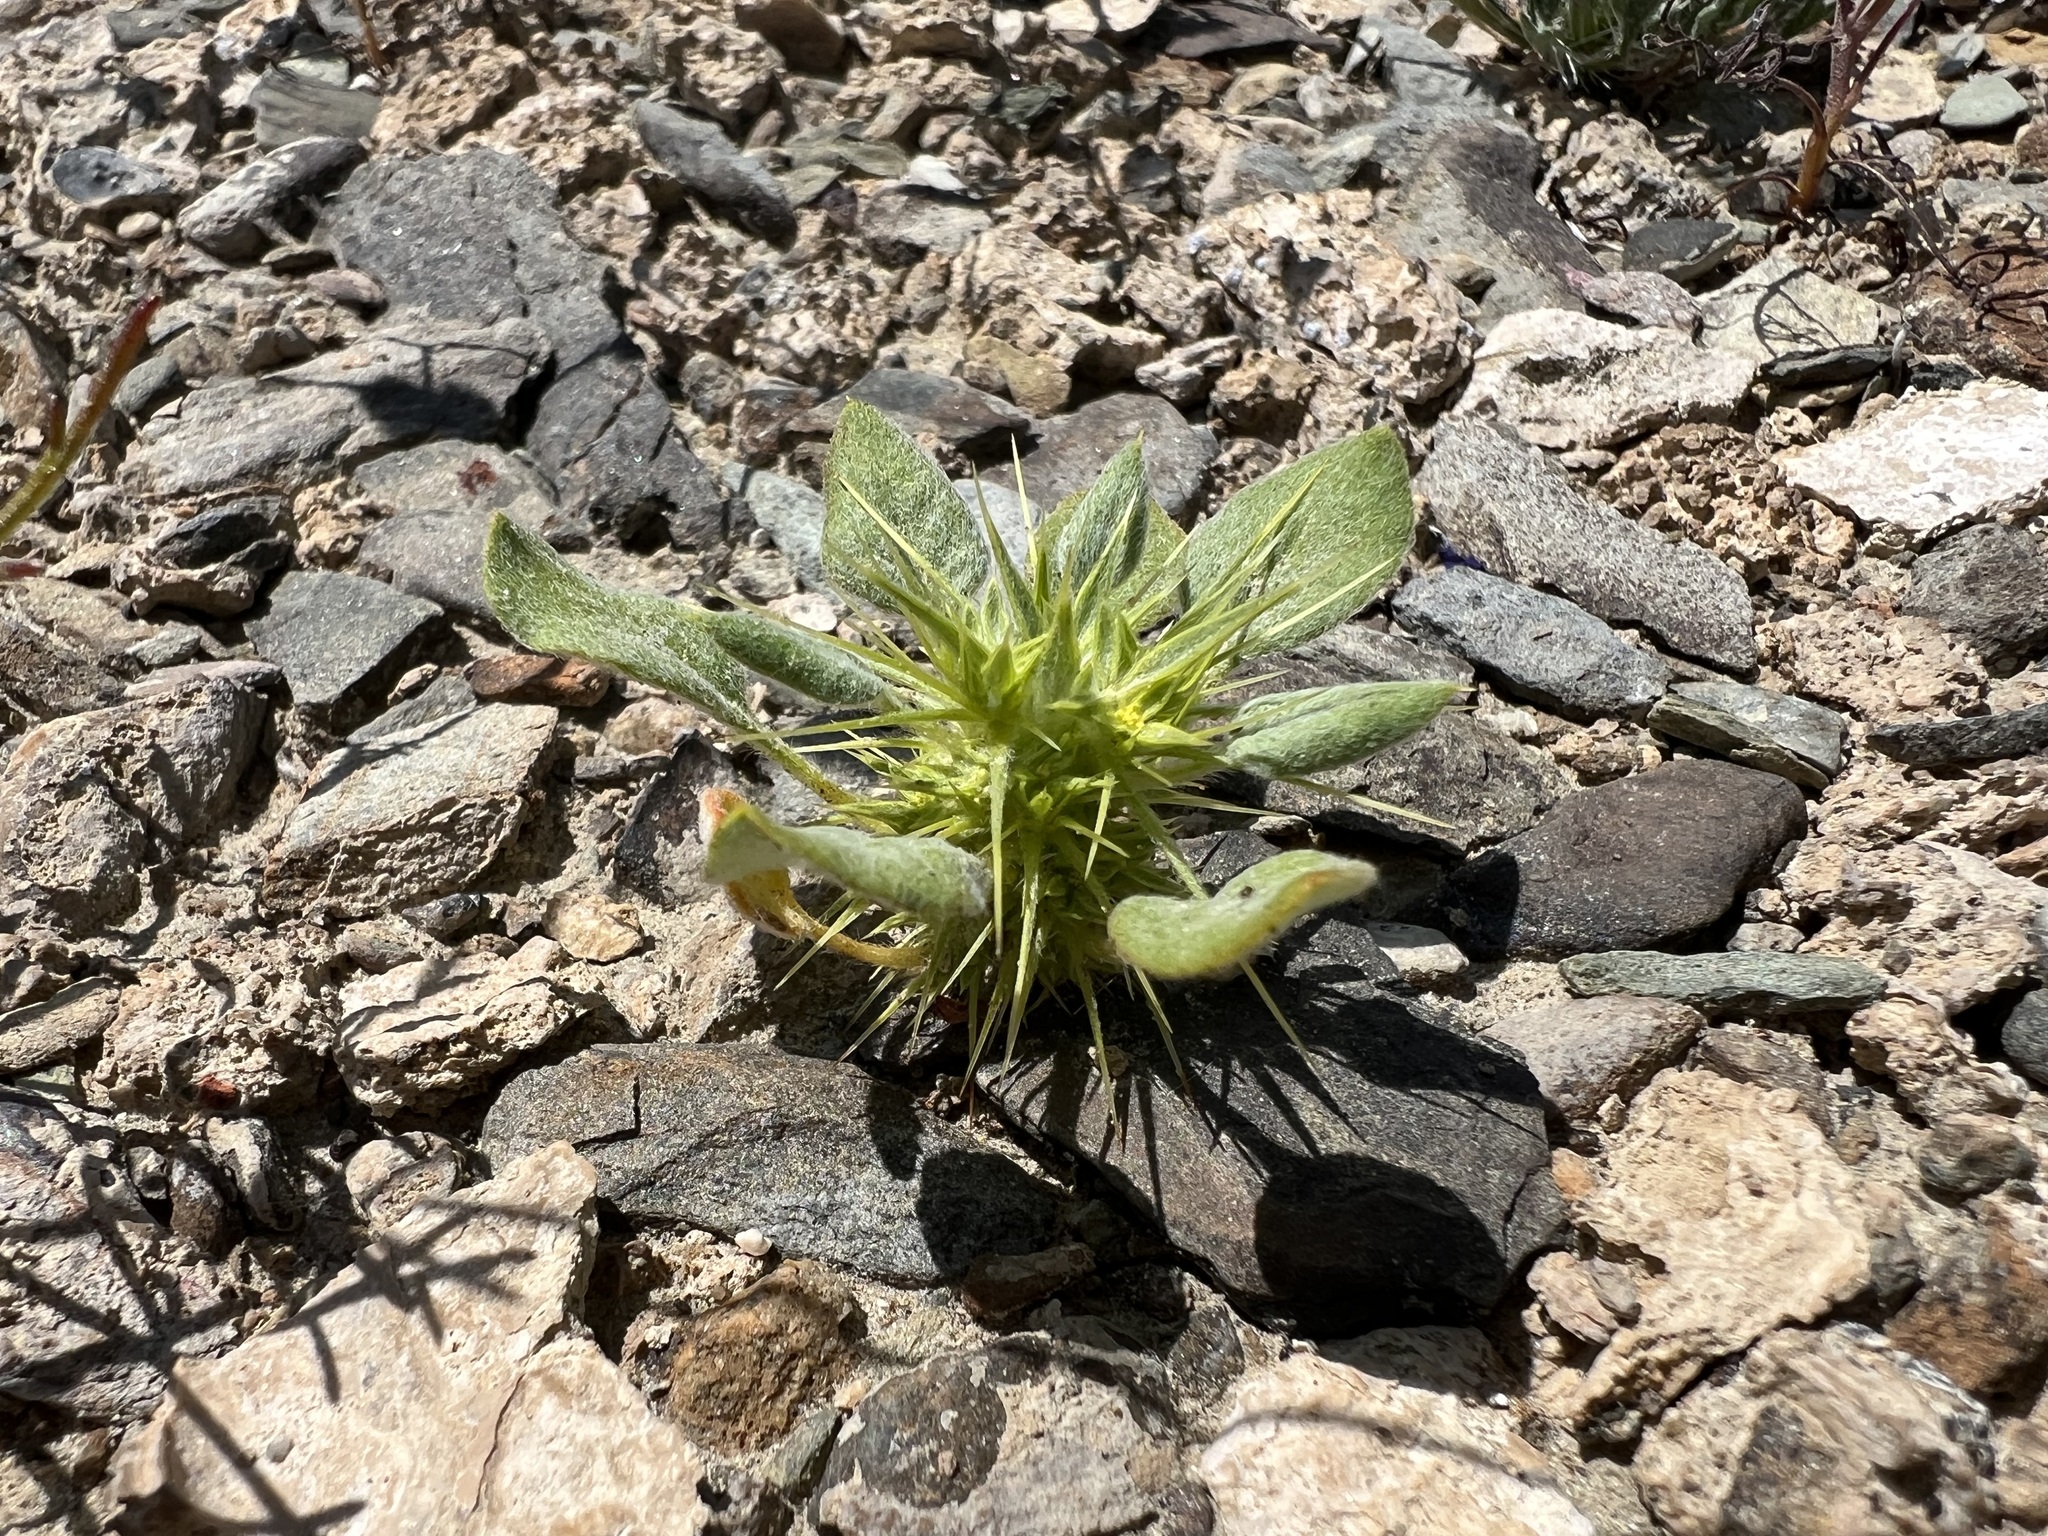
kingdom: Plantae
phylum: Tracheophyta
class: Magnoliopsida
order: Caryophyllales
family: Polygonaceae
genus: Chorizanthe
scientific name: Chorizanthe rigida
